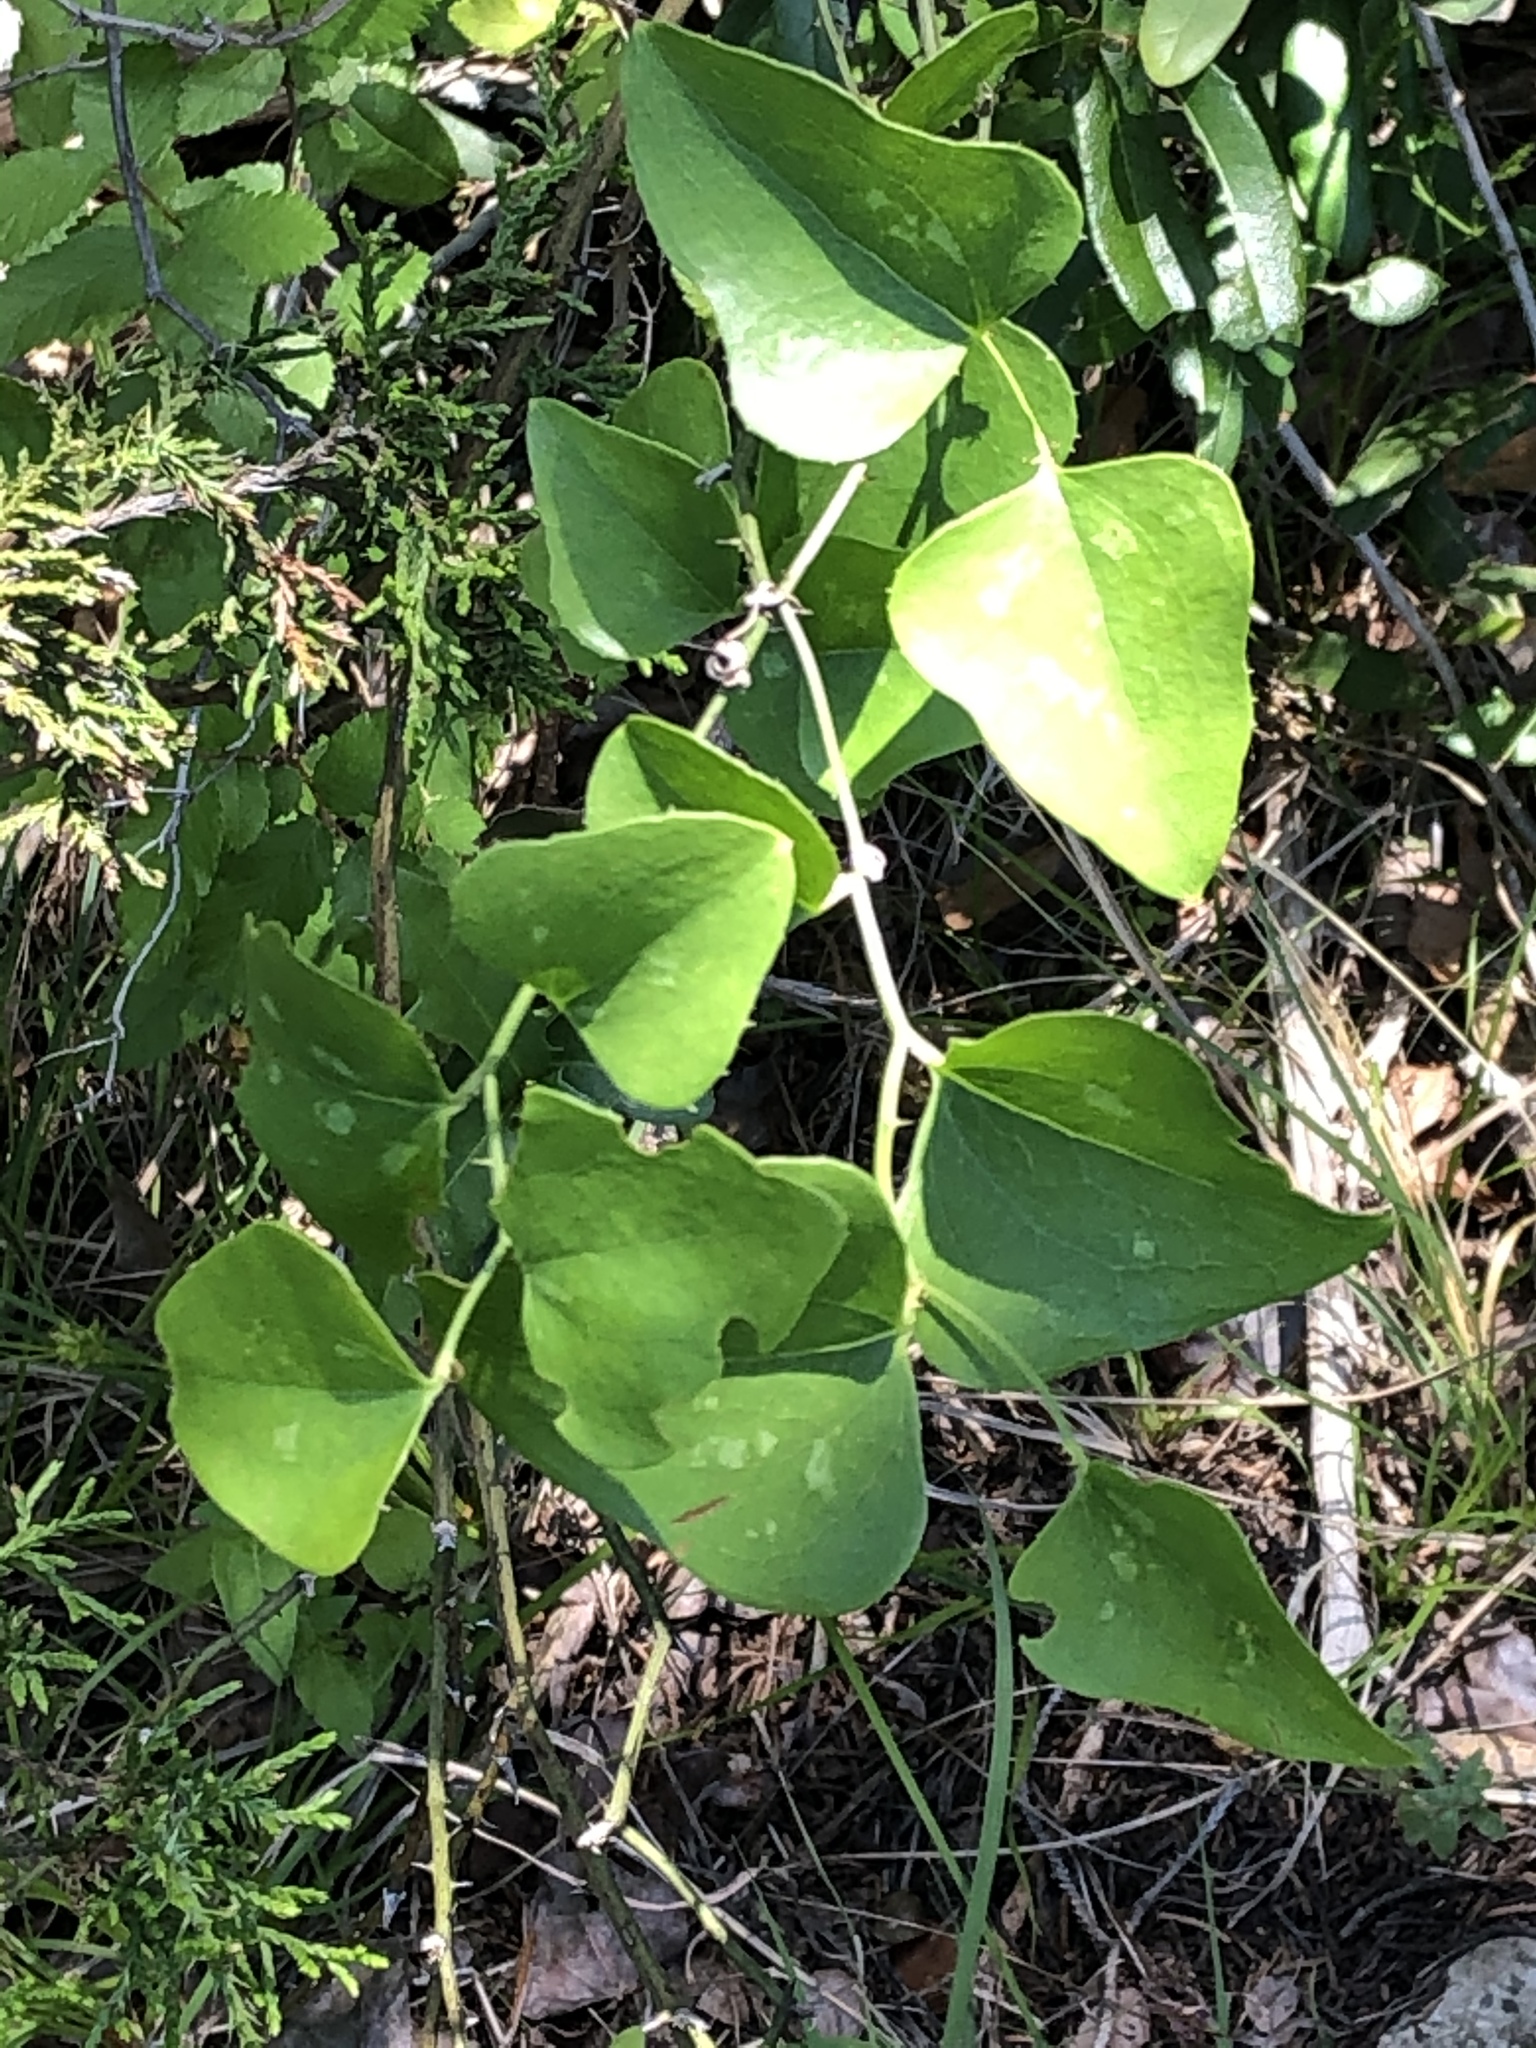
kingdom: Plantae
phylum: Tracheophyta
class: Liliopsida
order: Liliales
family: Smilacaceae
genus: Smilax
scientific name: Smilax bona-nox
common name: Catbrier
